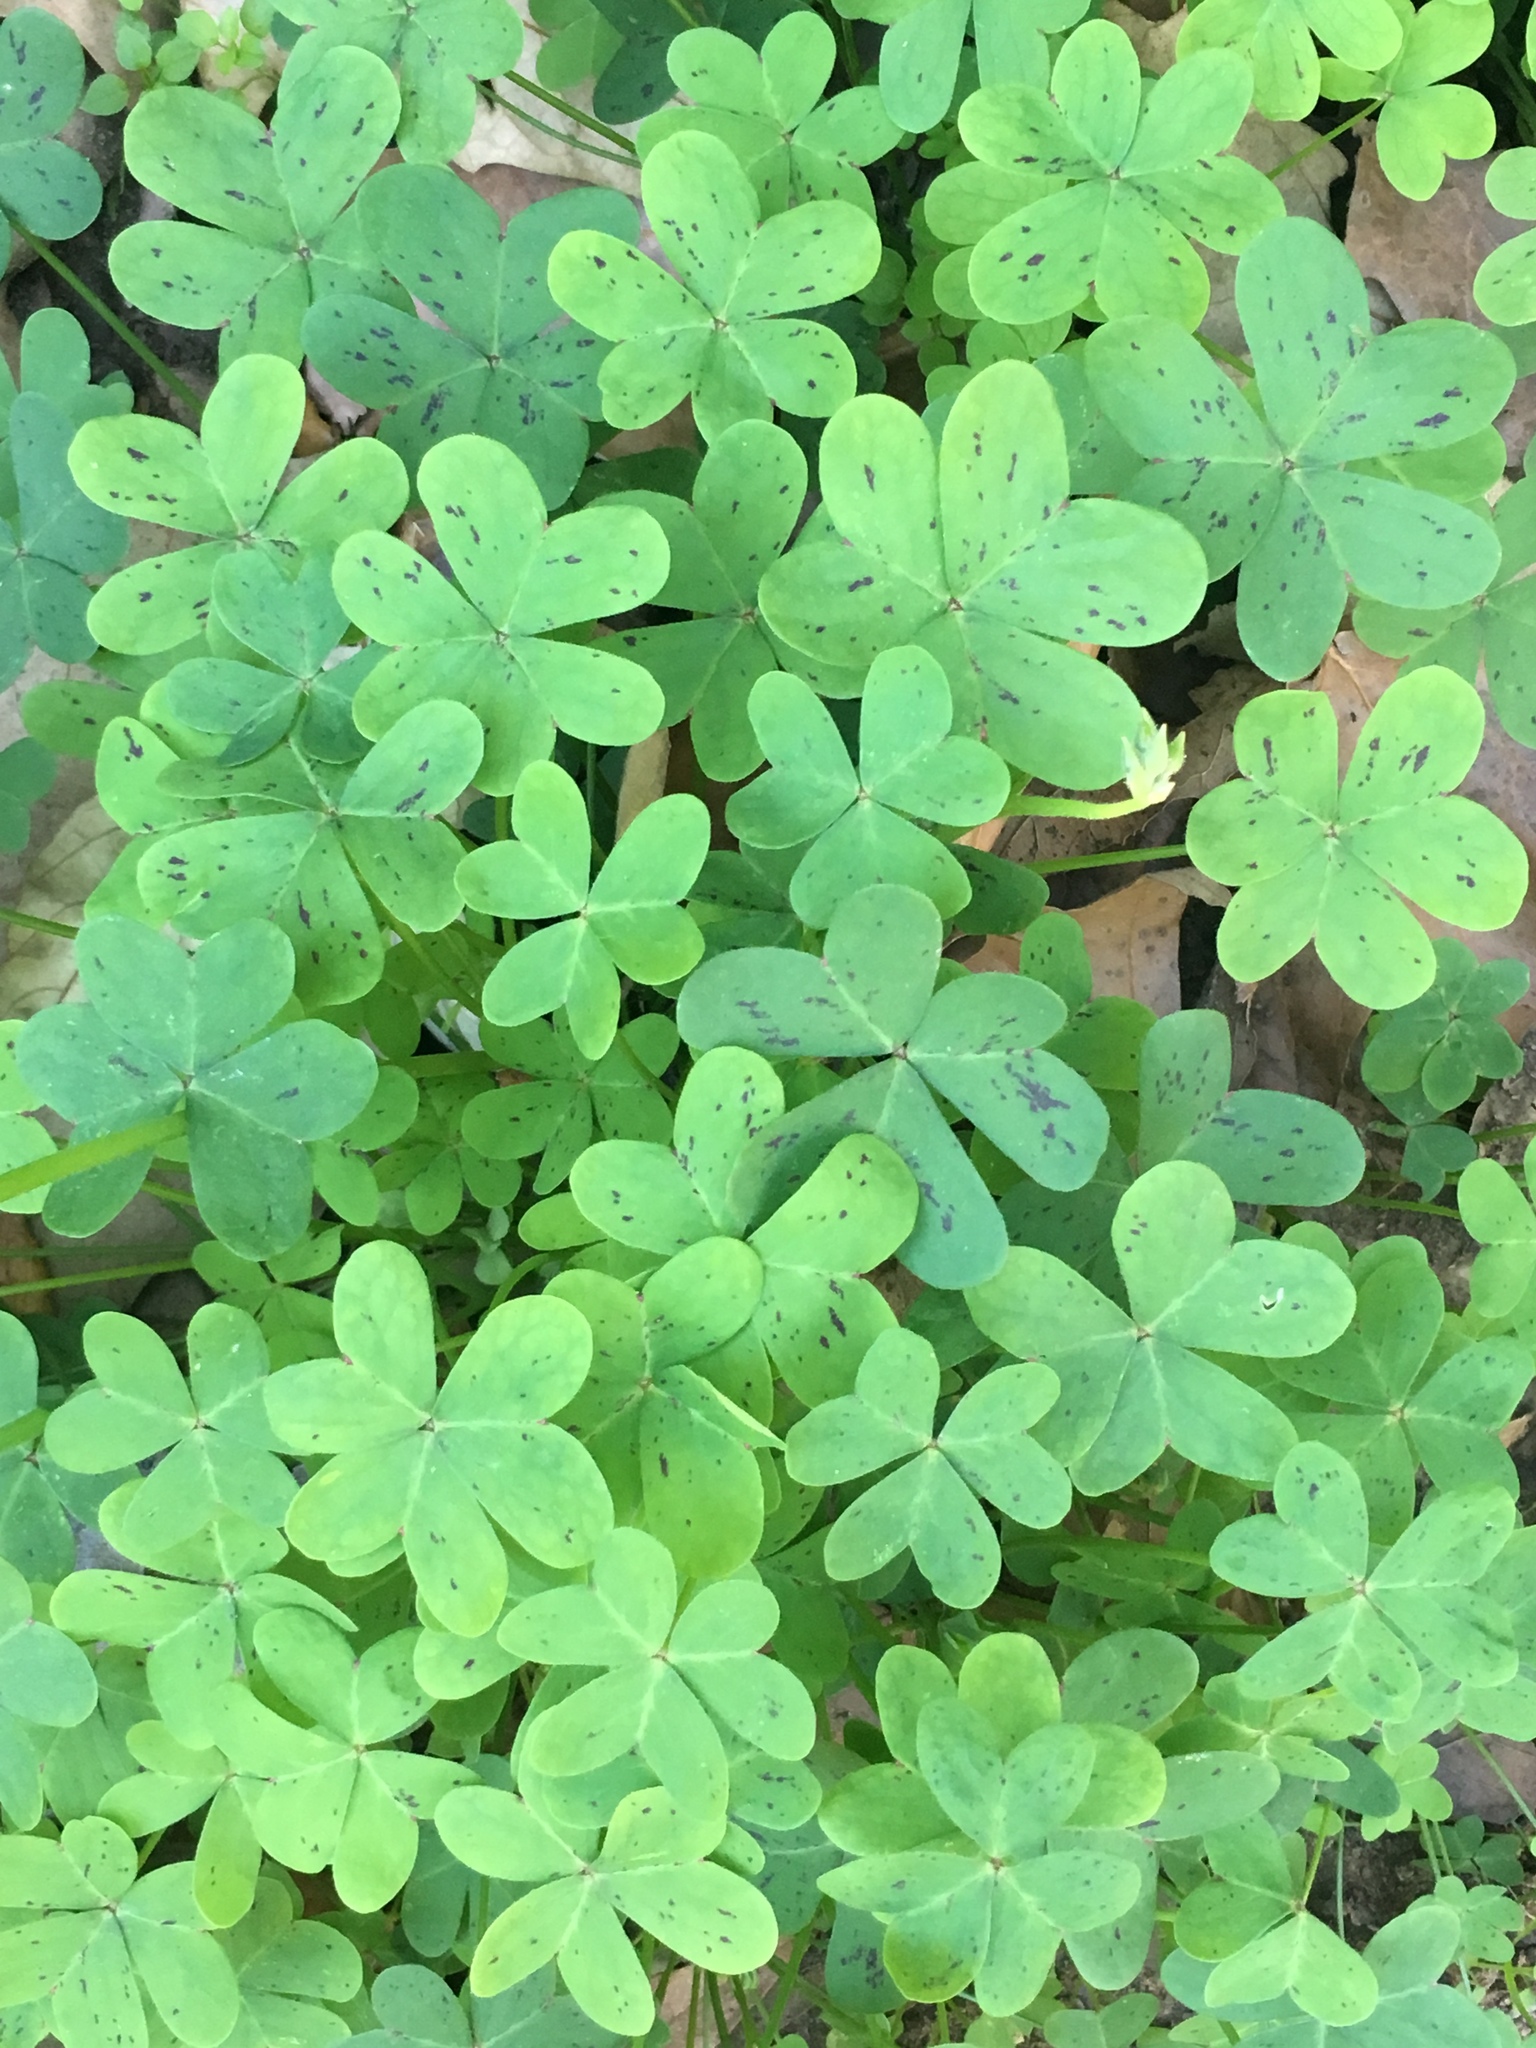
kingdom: Plantae
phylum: Tracheophyta
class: Magnoliopsida
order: Oxalidales
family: Oxalidaceae
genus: Oxalis
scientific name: Oxalis pes-caprae
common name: Bermuda-buttercup
